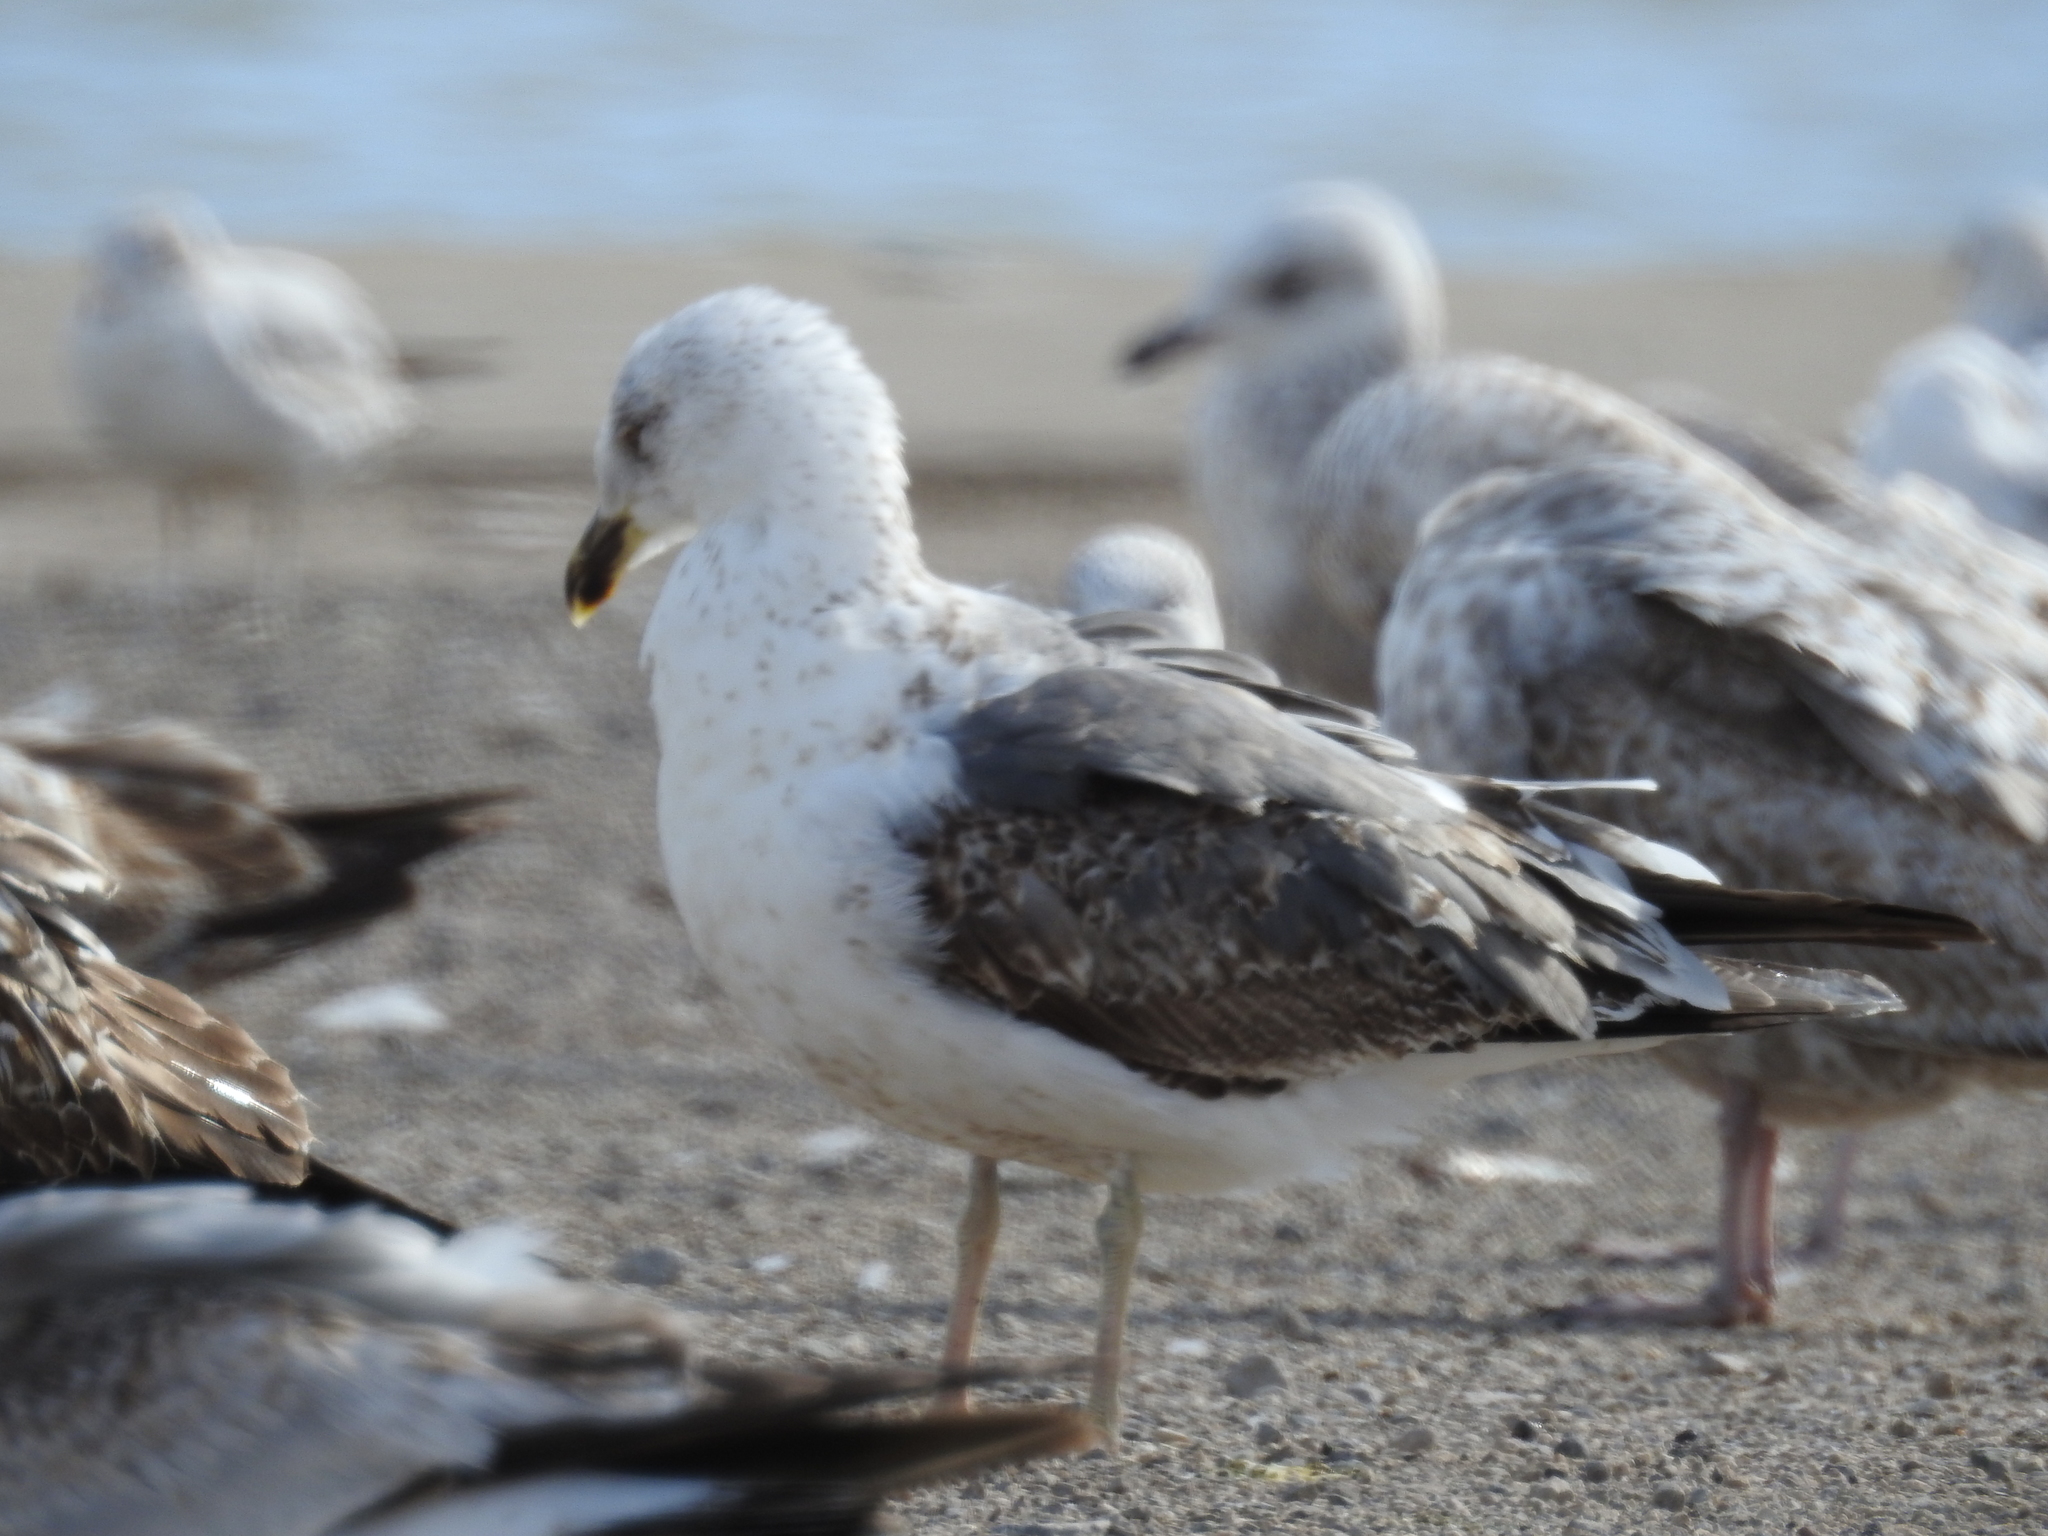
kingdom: Animalia
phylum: Chordata
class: Aves
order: Charadriiformes
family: Laridae
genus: Larus
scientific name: Larus fuscus
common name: Lesser black-backed gull
